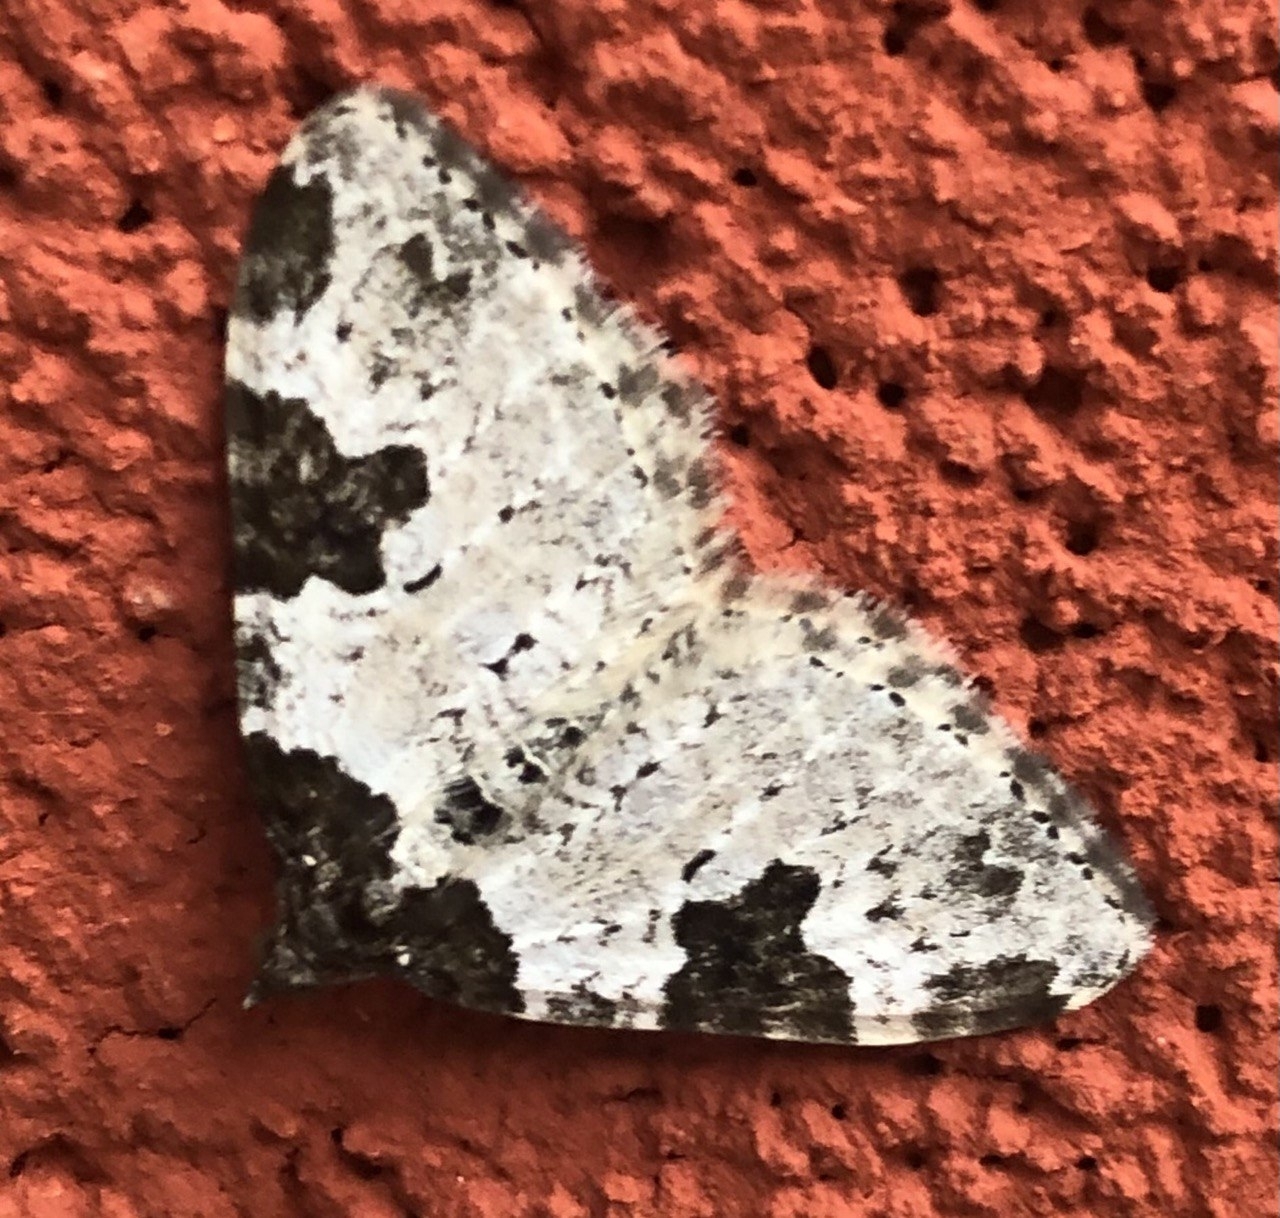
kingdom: Animalia
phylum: Arthropoda
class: Insecta
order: Lepidoptera
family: Geometridae
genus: Xanthorhoe
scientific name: Xanthorhoe fluctuata
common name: Garden carpet
